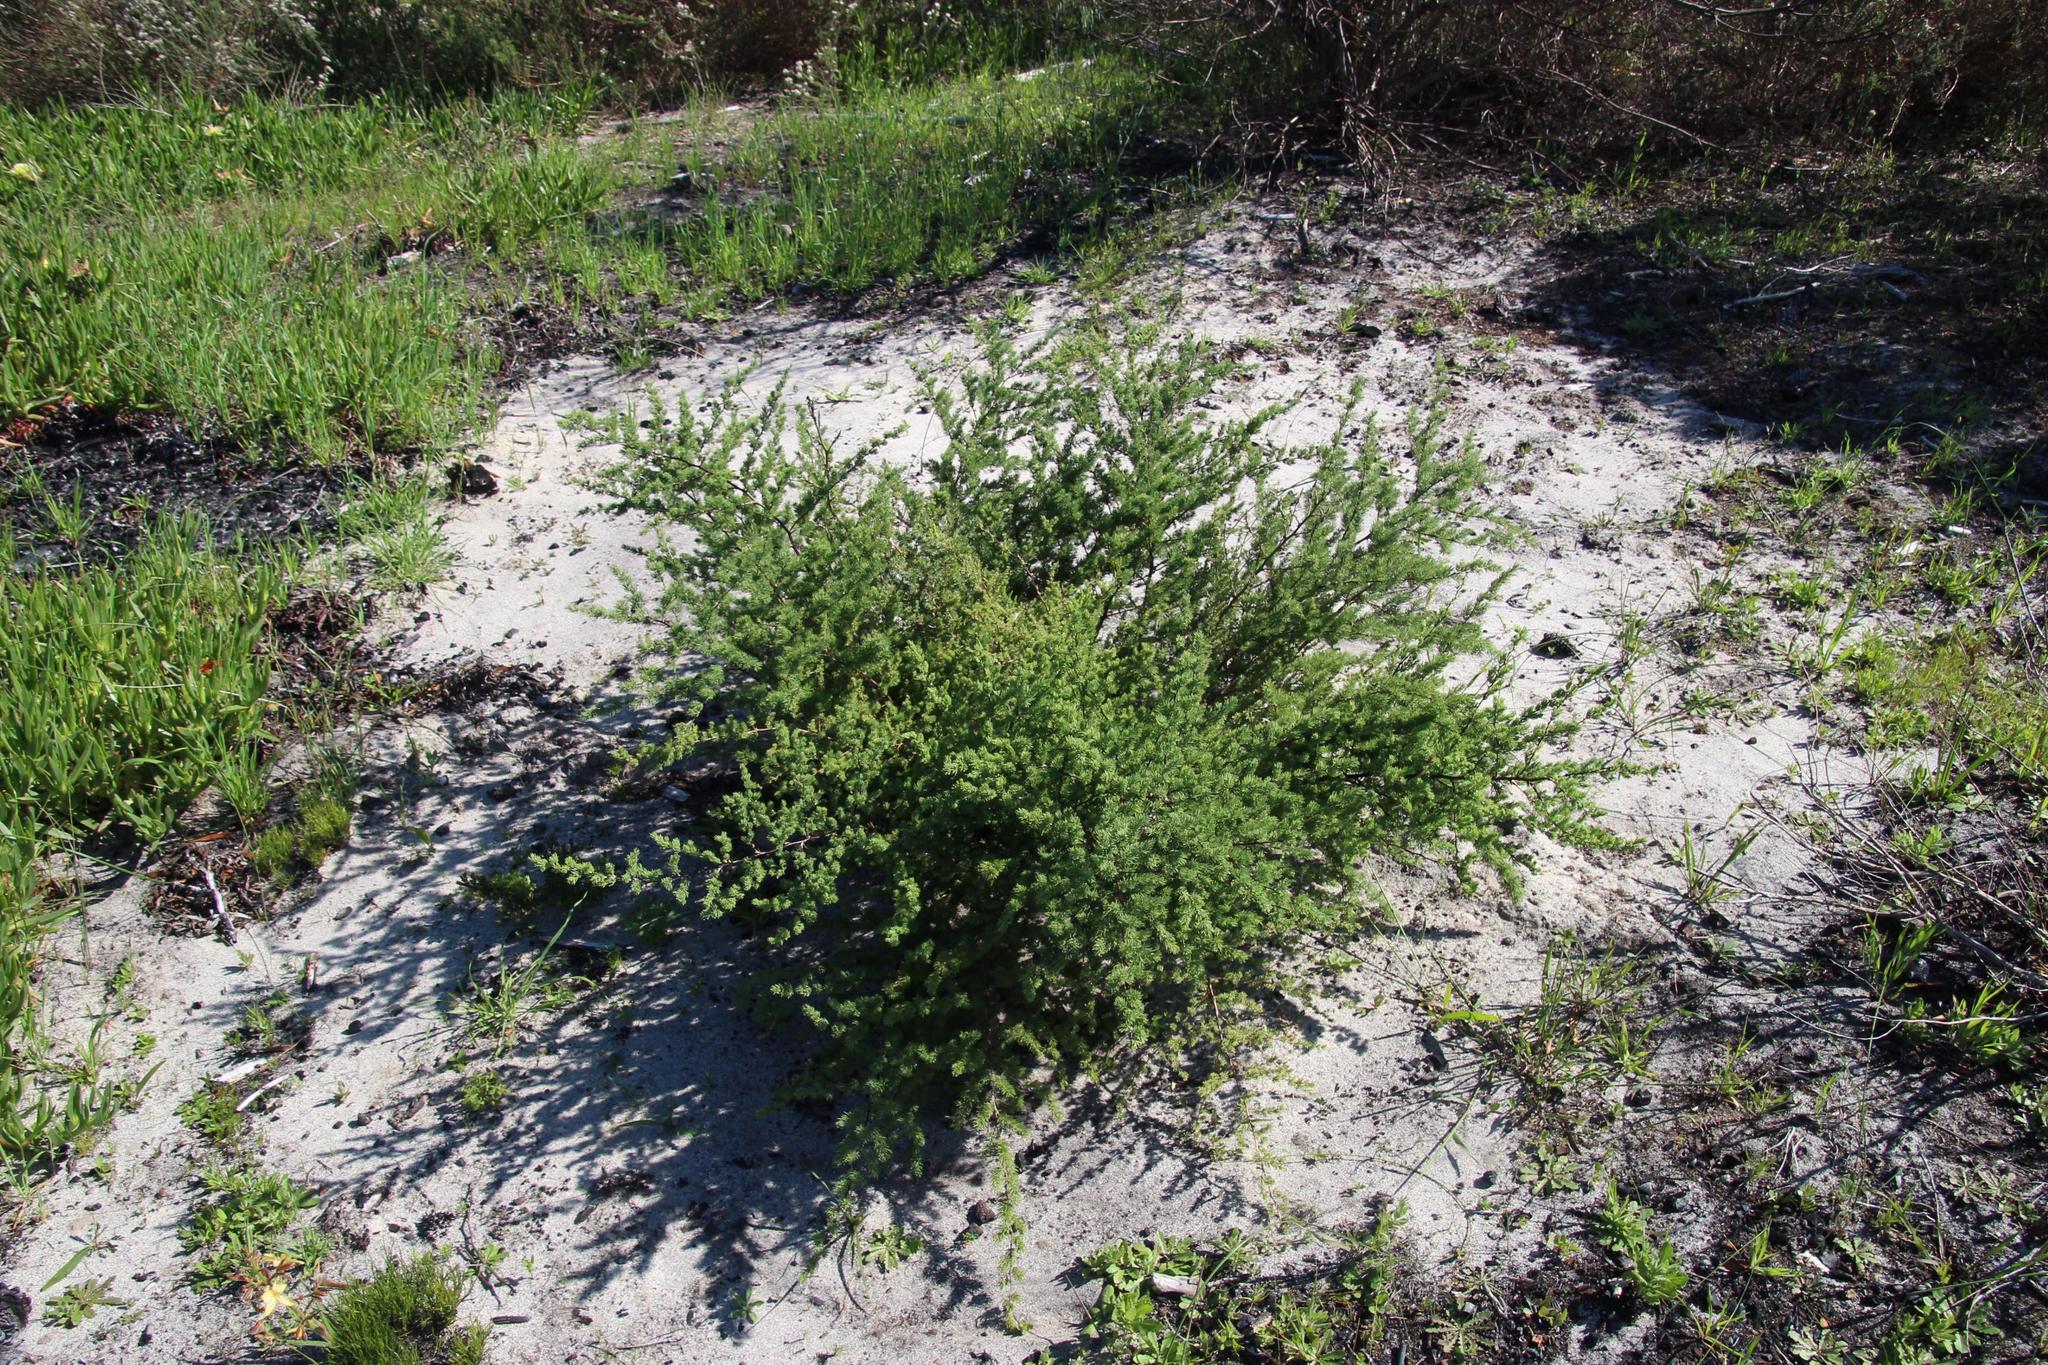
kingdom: Plantae
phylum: Tracheophyta
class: Liliopsida
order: Asparagales
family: Asparagaceae
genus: Asparagus
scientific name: Asparagus rubicundus
